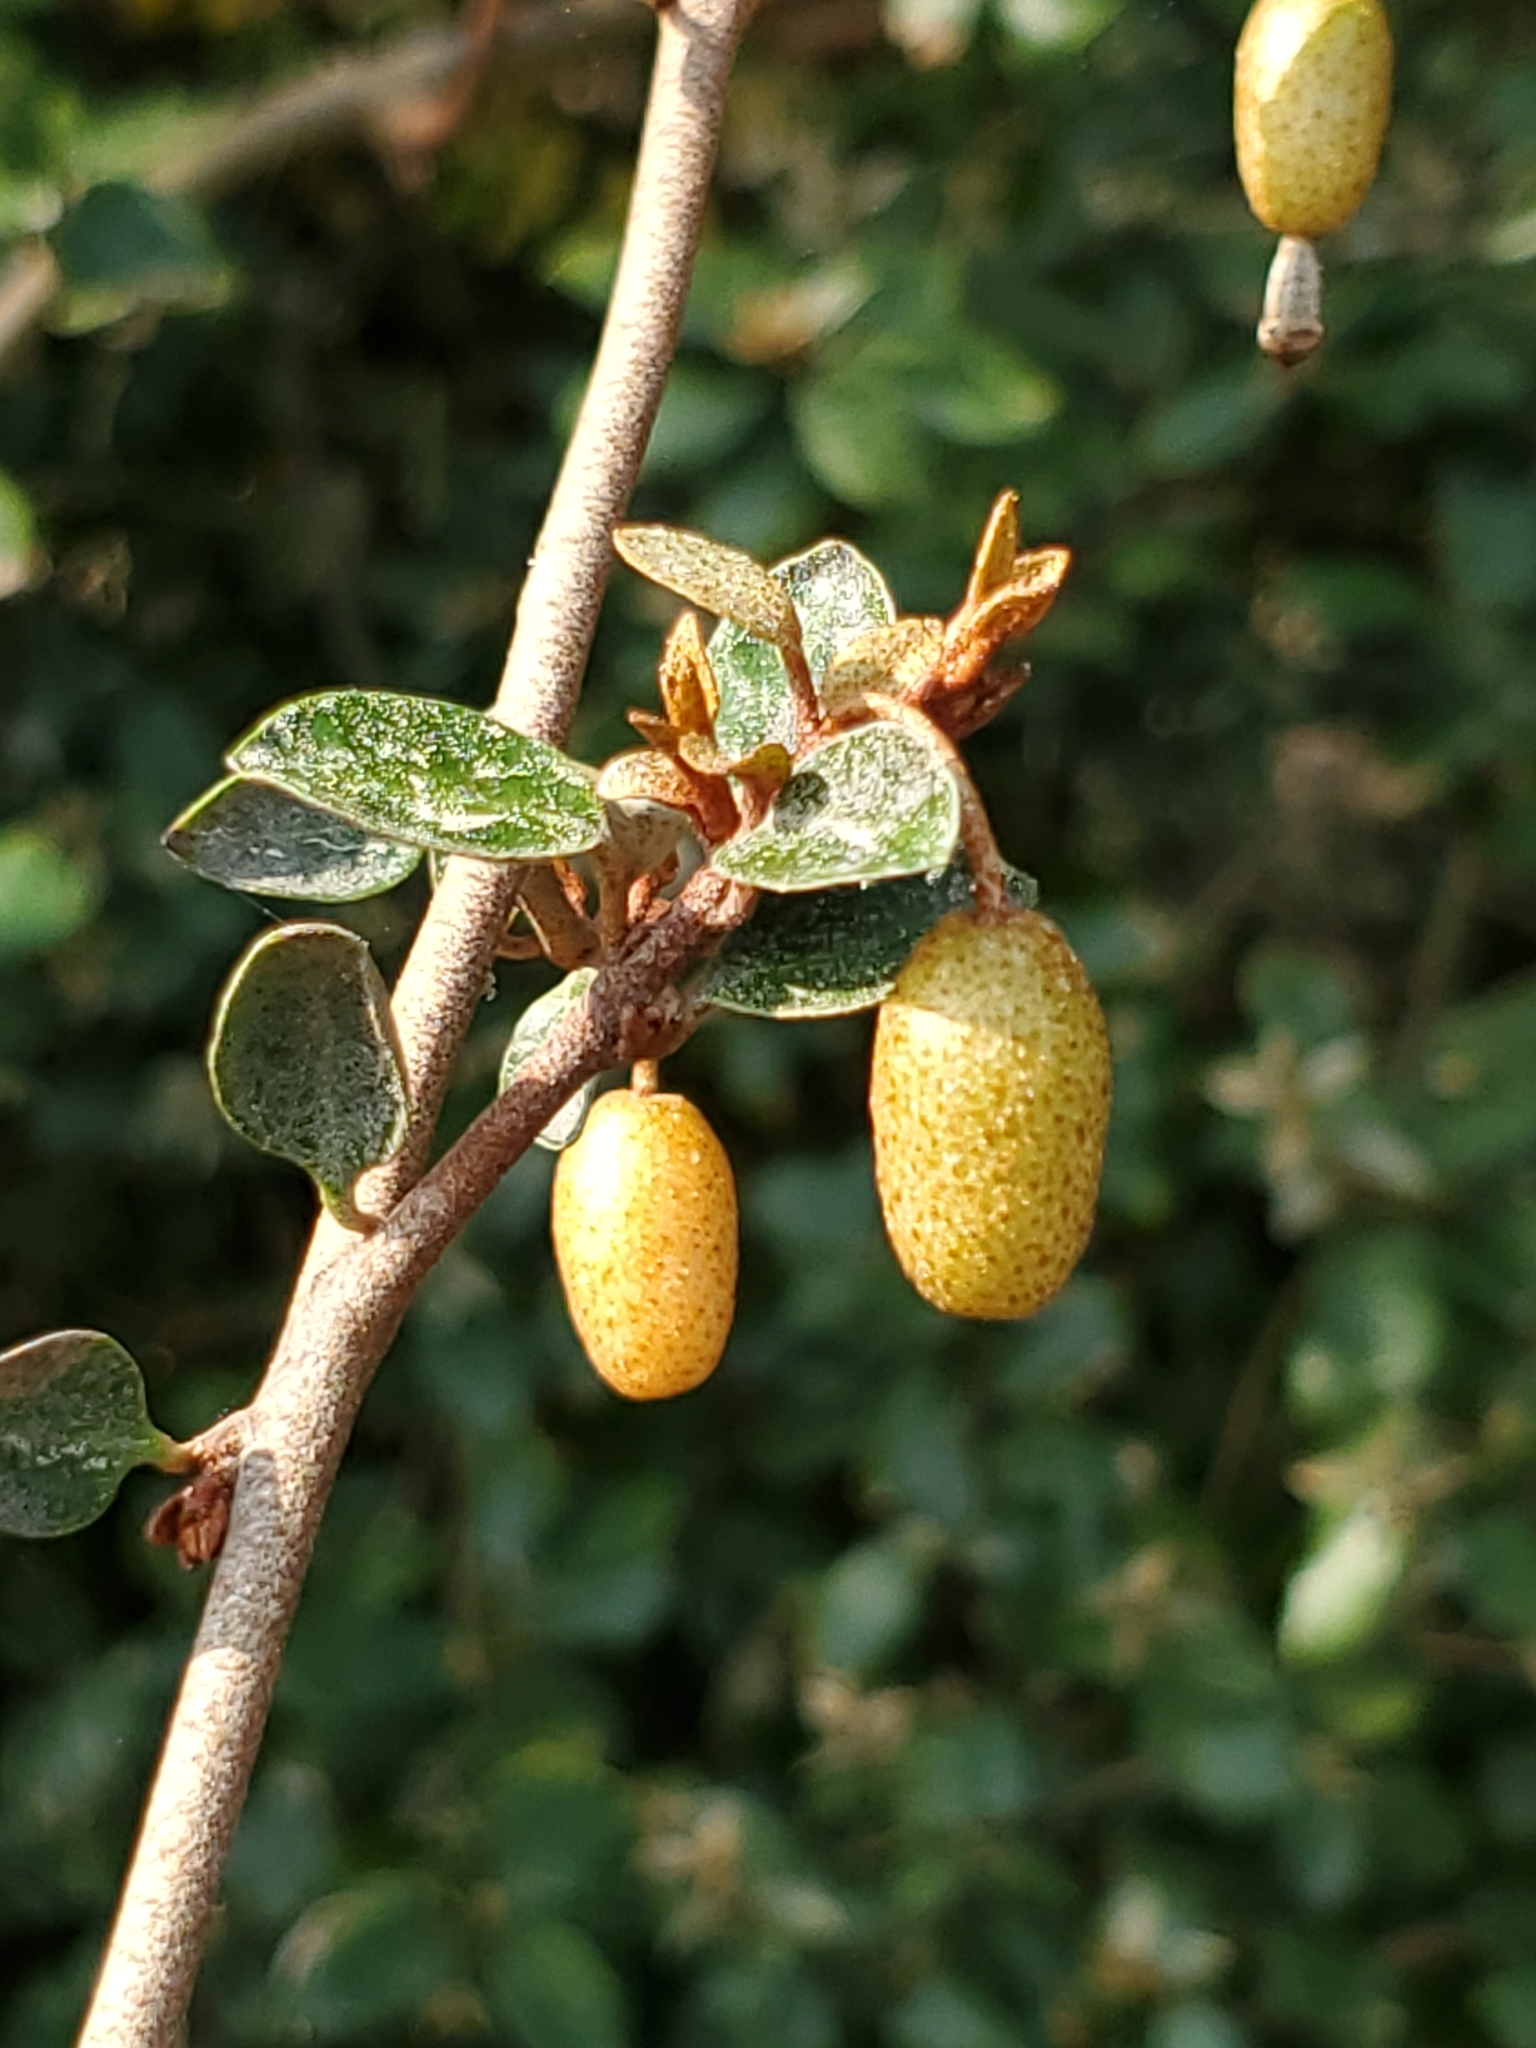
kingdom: Plantae
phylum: Tracheophyta
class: Magnoliopsida
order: Rosales
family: Elaeagnaceae
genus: Elaeagnus
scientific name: Elaeagnus pungens
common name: Spiny oleaster
